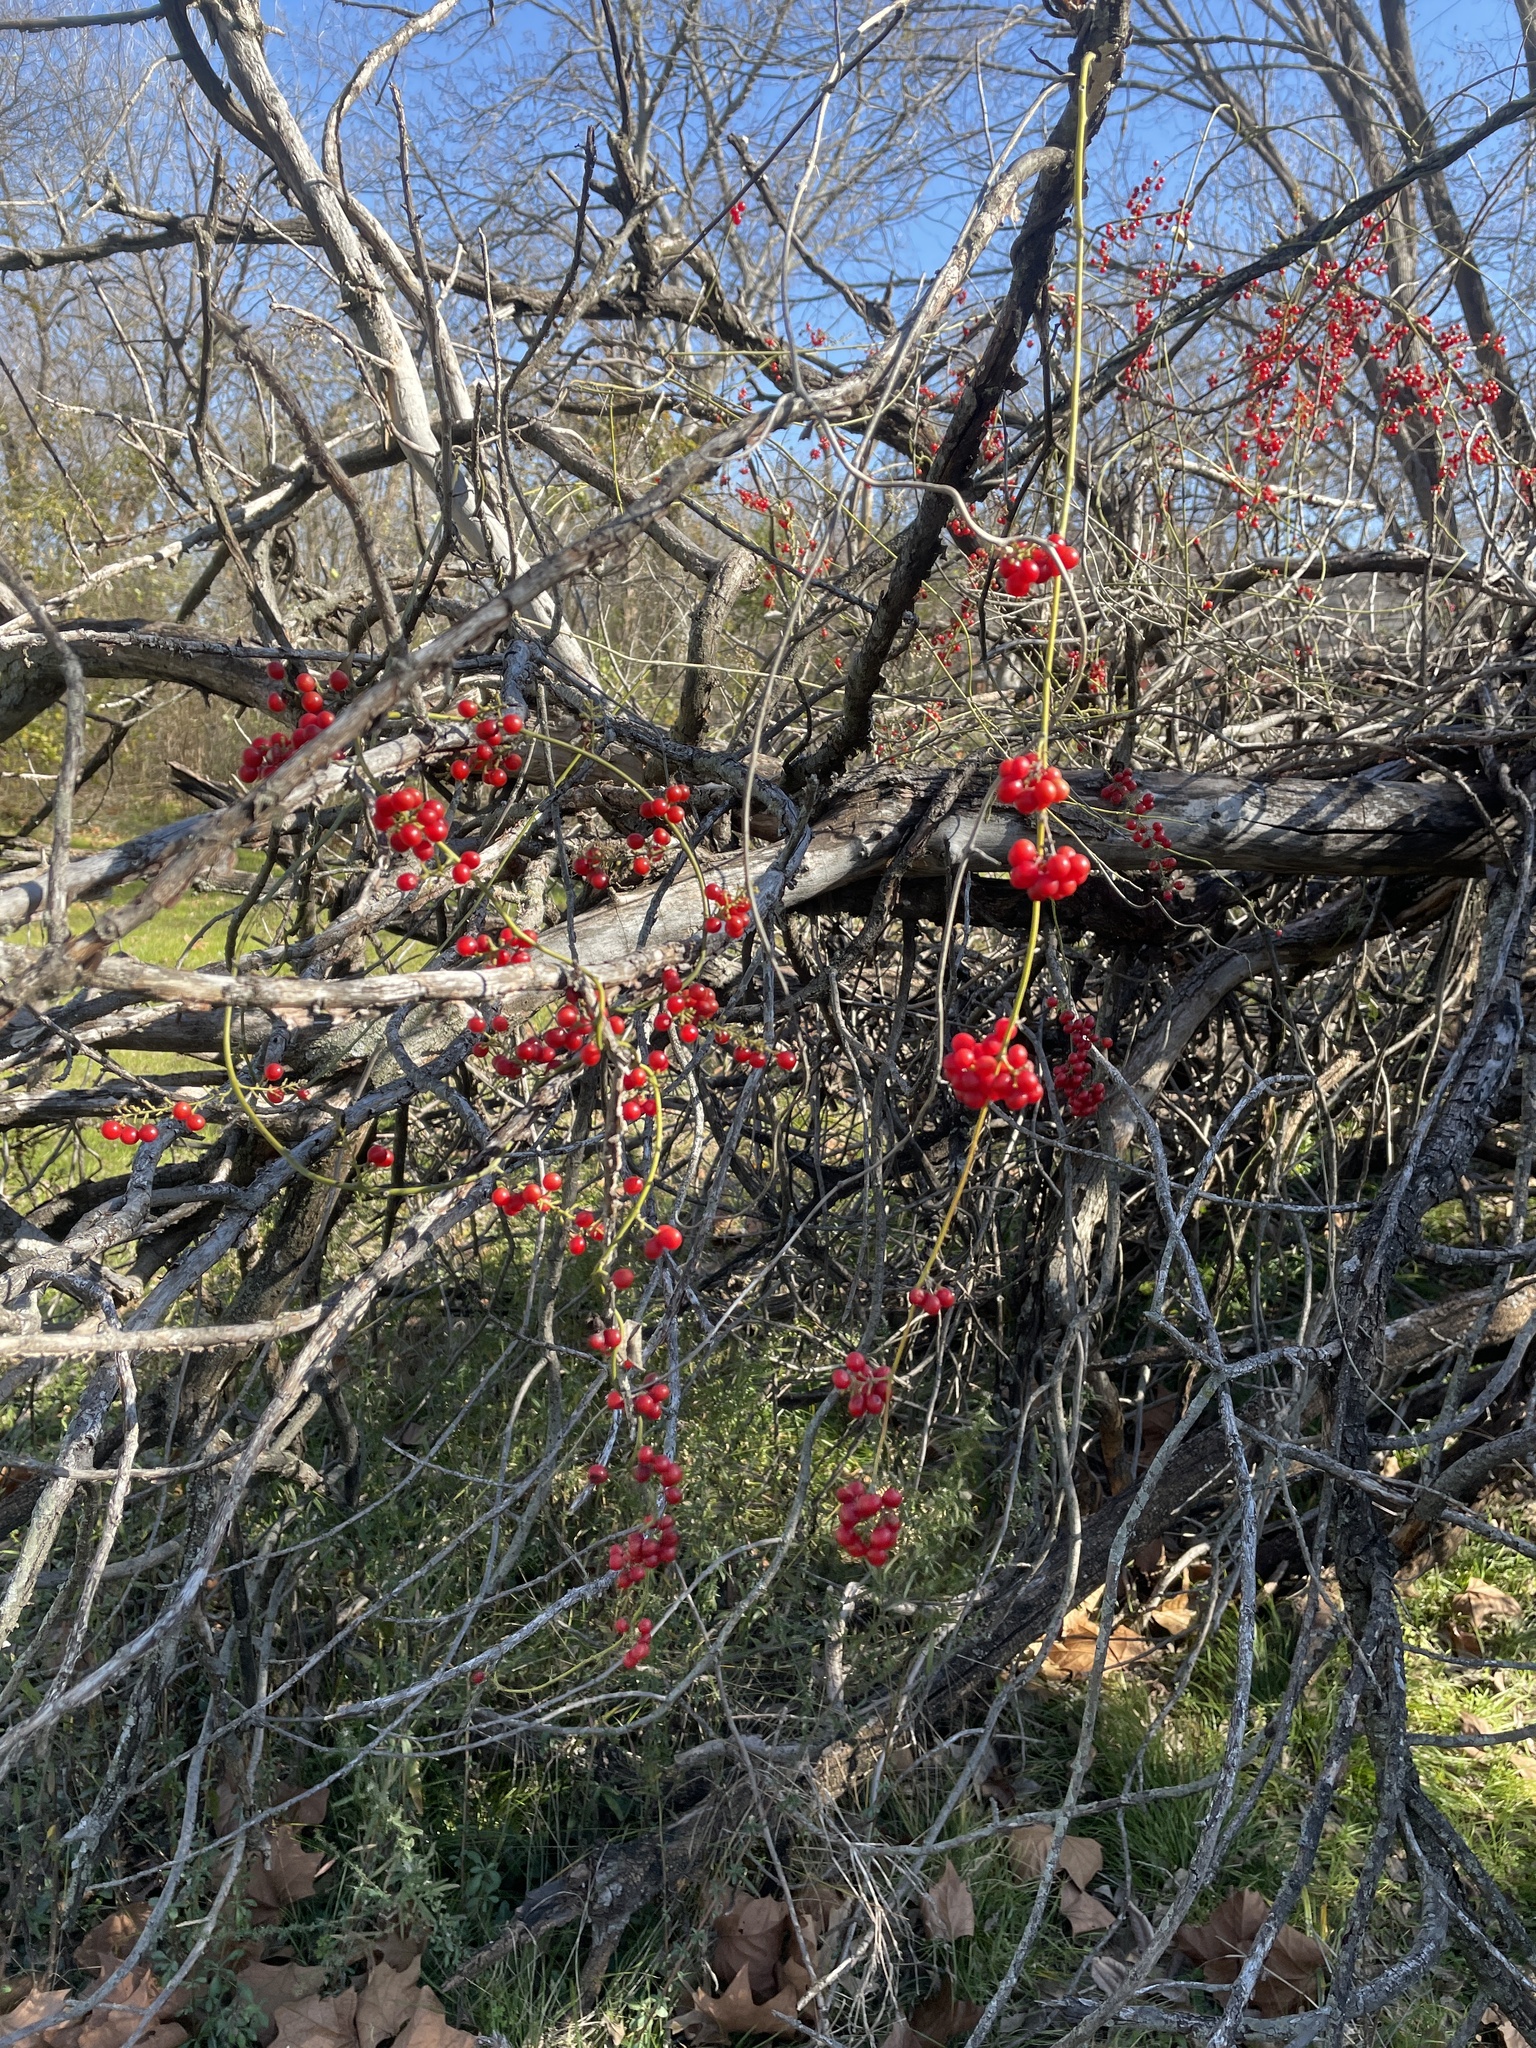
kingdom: Plantae
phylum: Tracheophyta
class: Magnoliopsida
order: Ranunculales
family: Menispermaceae
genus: Cocculus
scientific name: Cocculus carolinus
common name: Carolina moonseed
